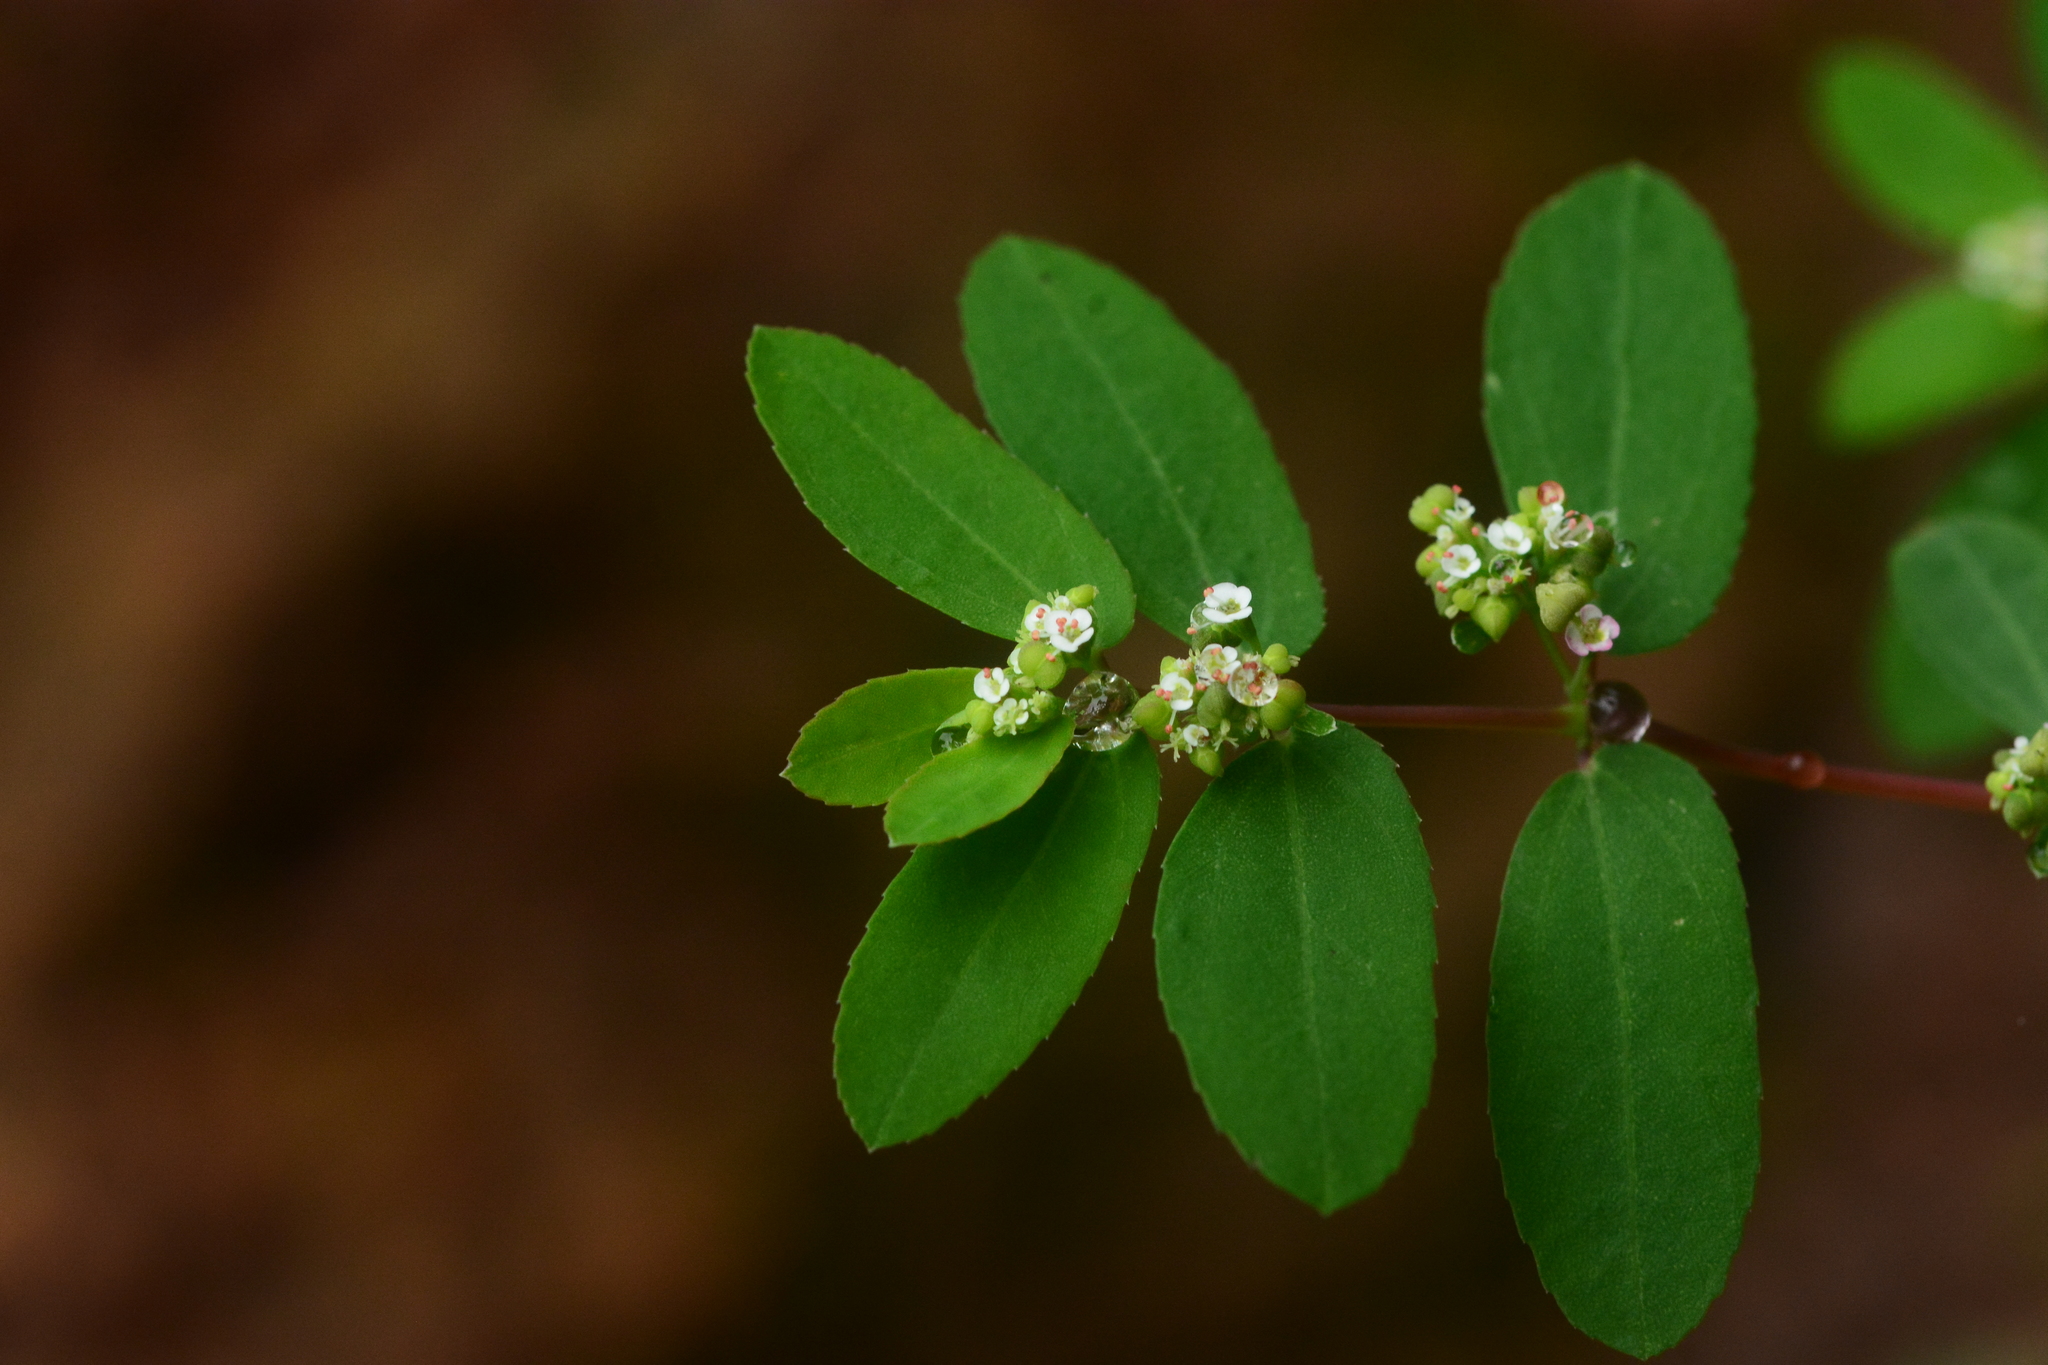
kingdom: Plantae
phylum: Tracheophyta
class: Magnoliopsida
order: Malpighiales
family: Euphorbiaceae
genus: Euphorbia
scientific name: Euphorbia hypericifolia
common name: Graceful sandmat
